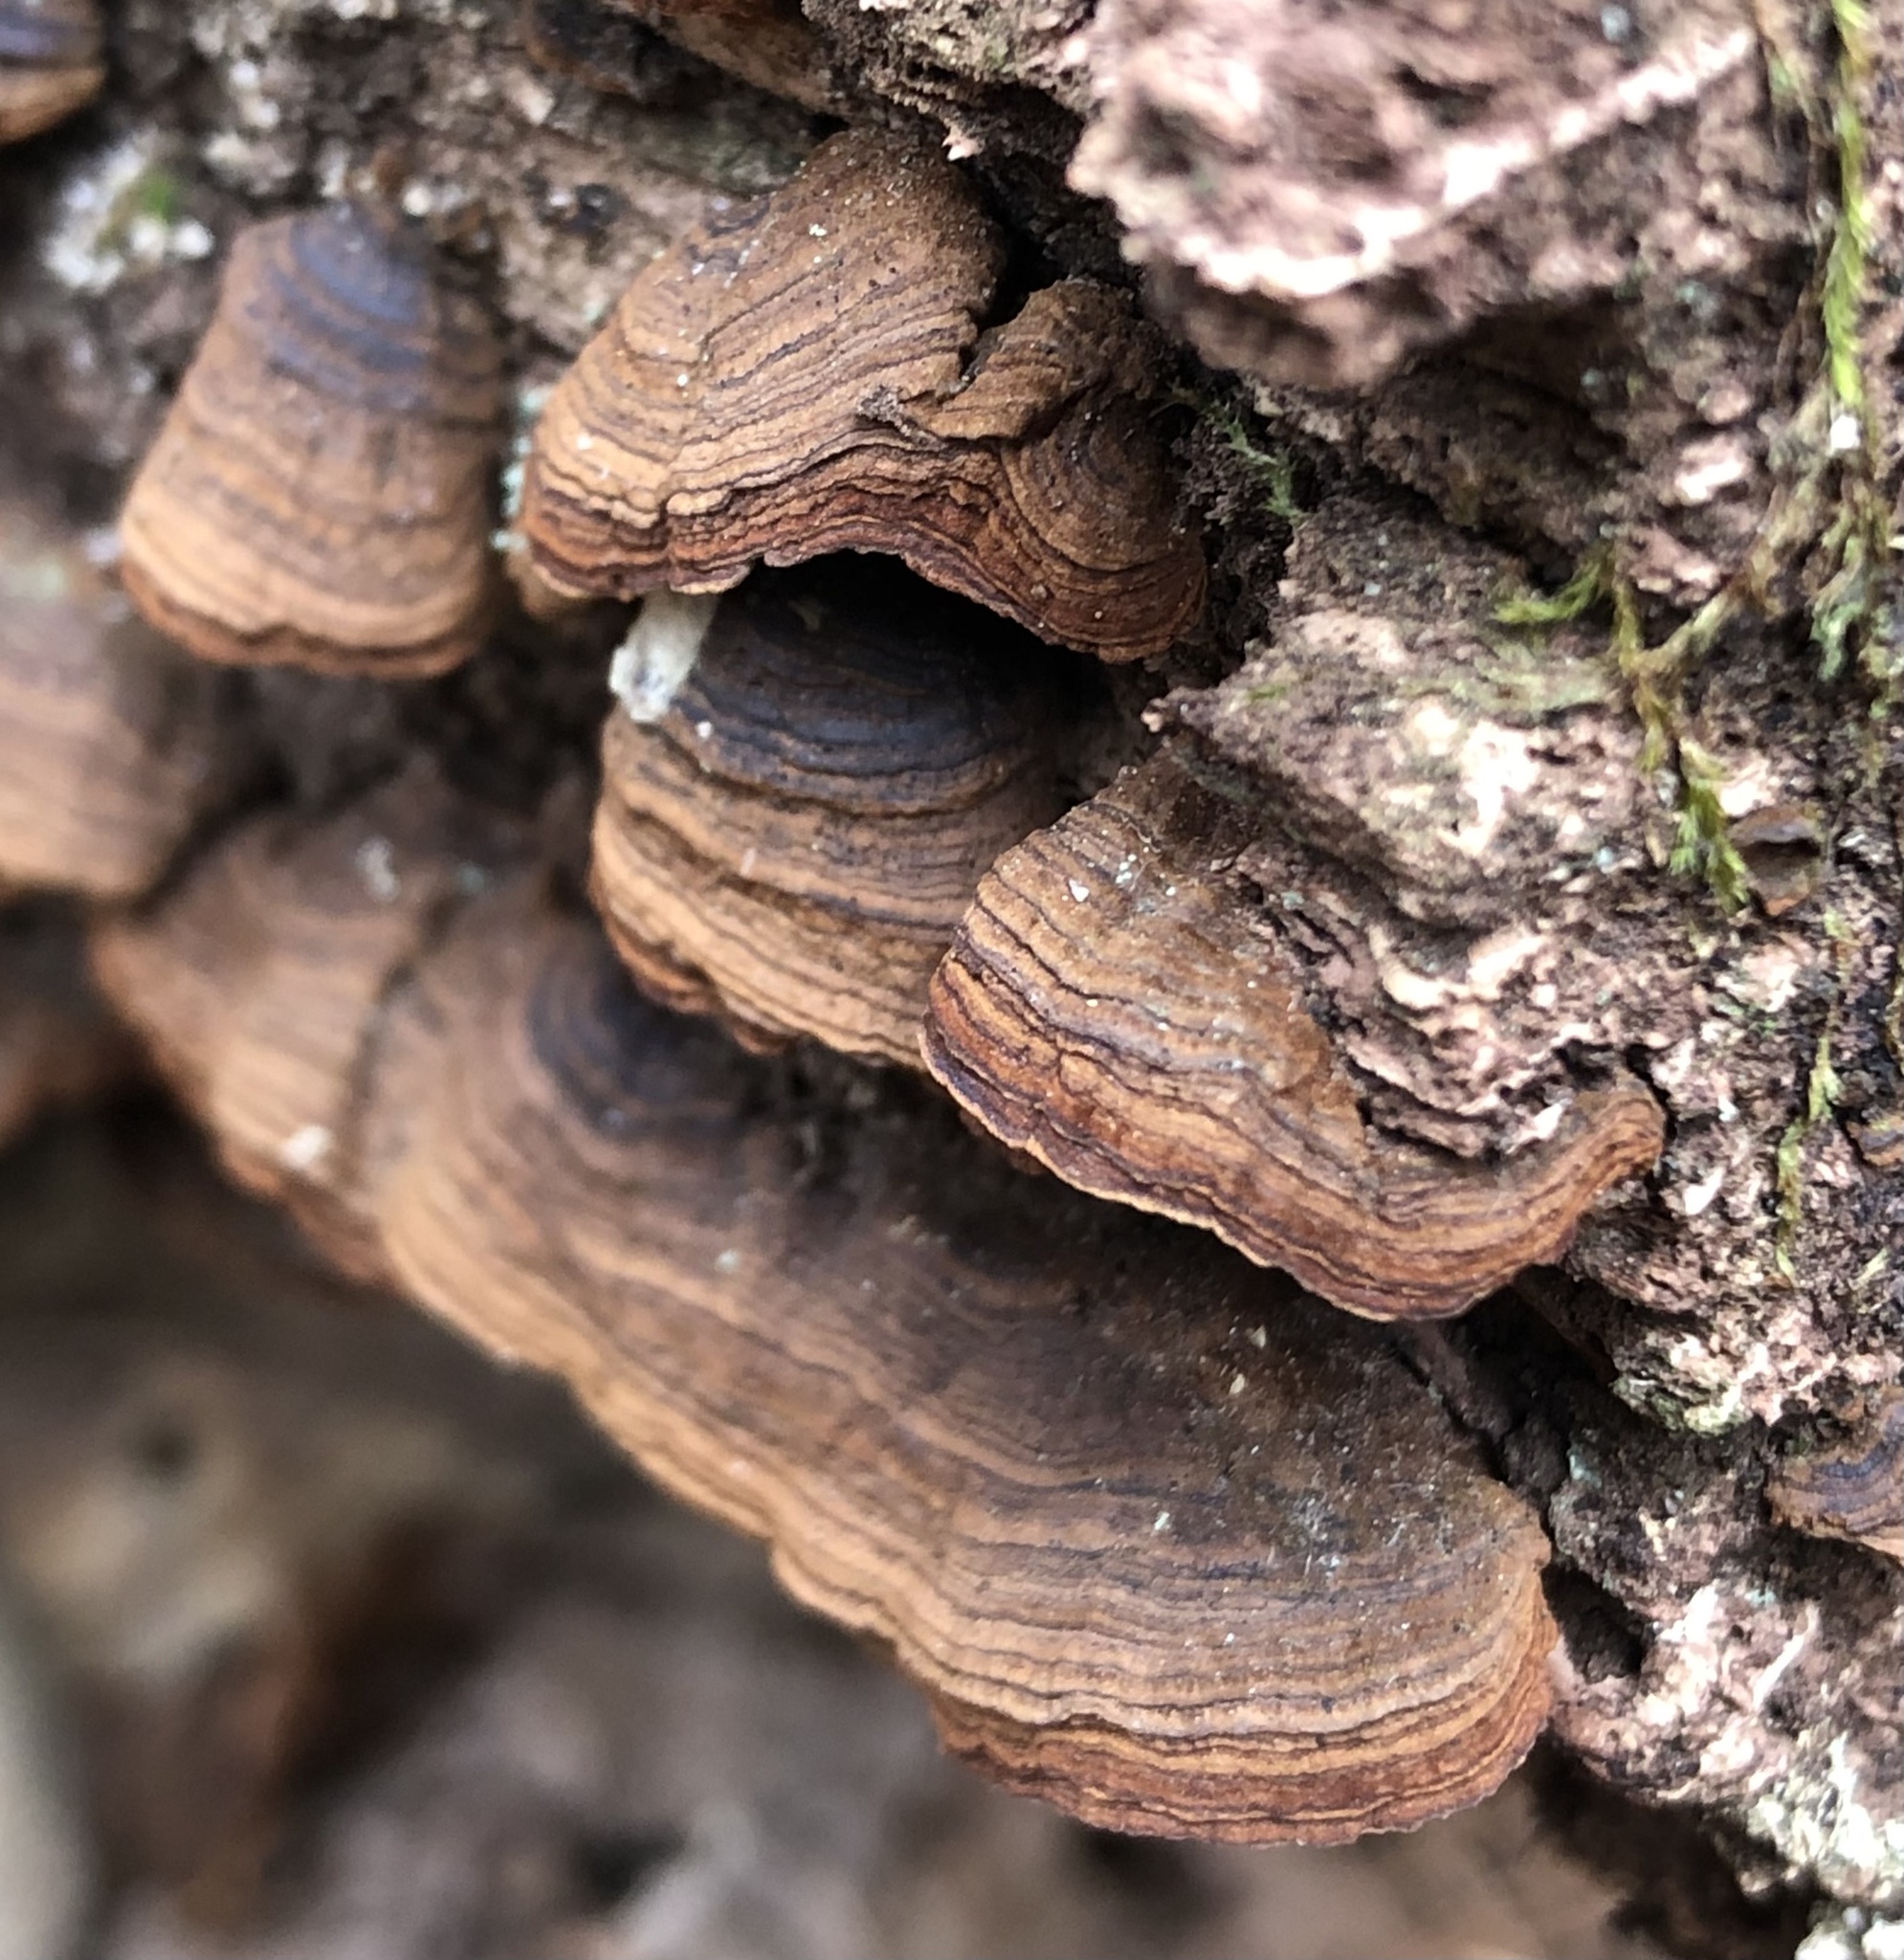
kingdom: Fungi
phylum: Basidiomycota
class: Agaricomycetes
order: Hymenochaetales
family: Hymenochaetaceae
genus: Hymenochaete
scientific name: Hymenochaete rubiginosa
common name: Oak curtain crust
